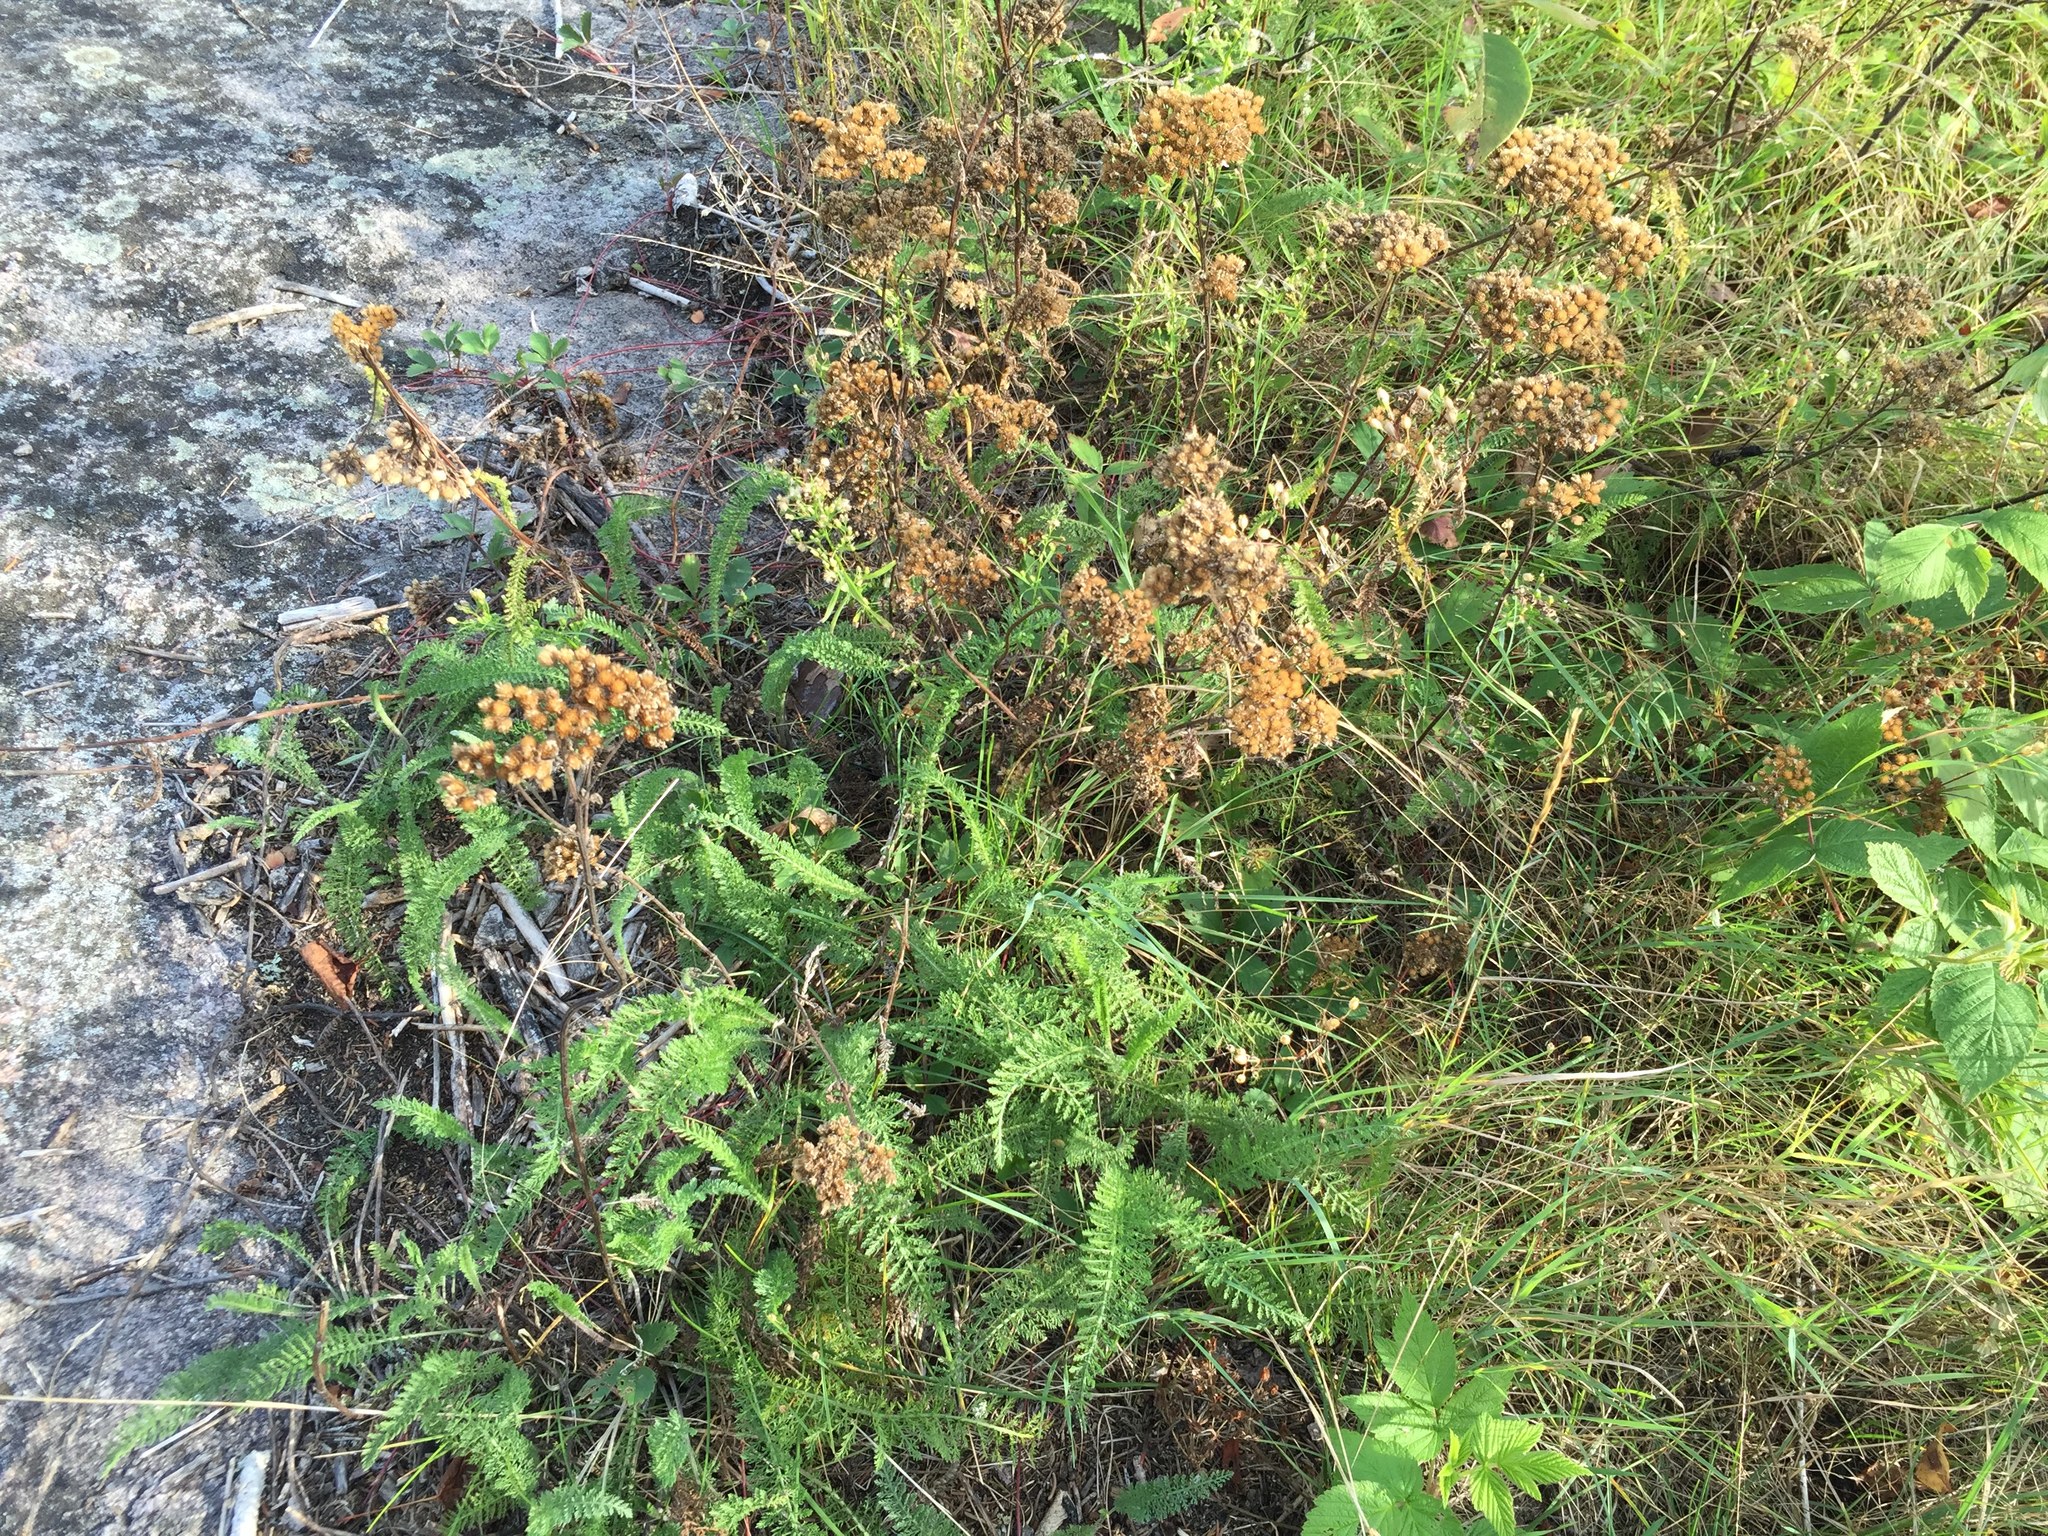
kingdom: Plantae
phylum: Tracheophyta
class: Magnoliopsida
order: Asterales
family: Asteraceae
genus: Achillea
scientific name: Achillea millefolium
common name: Yarrow
